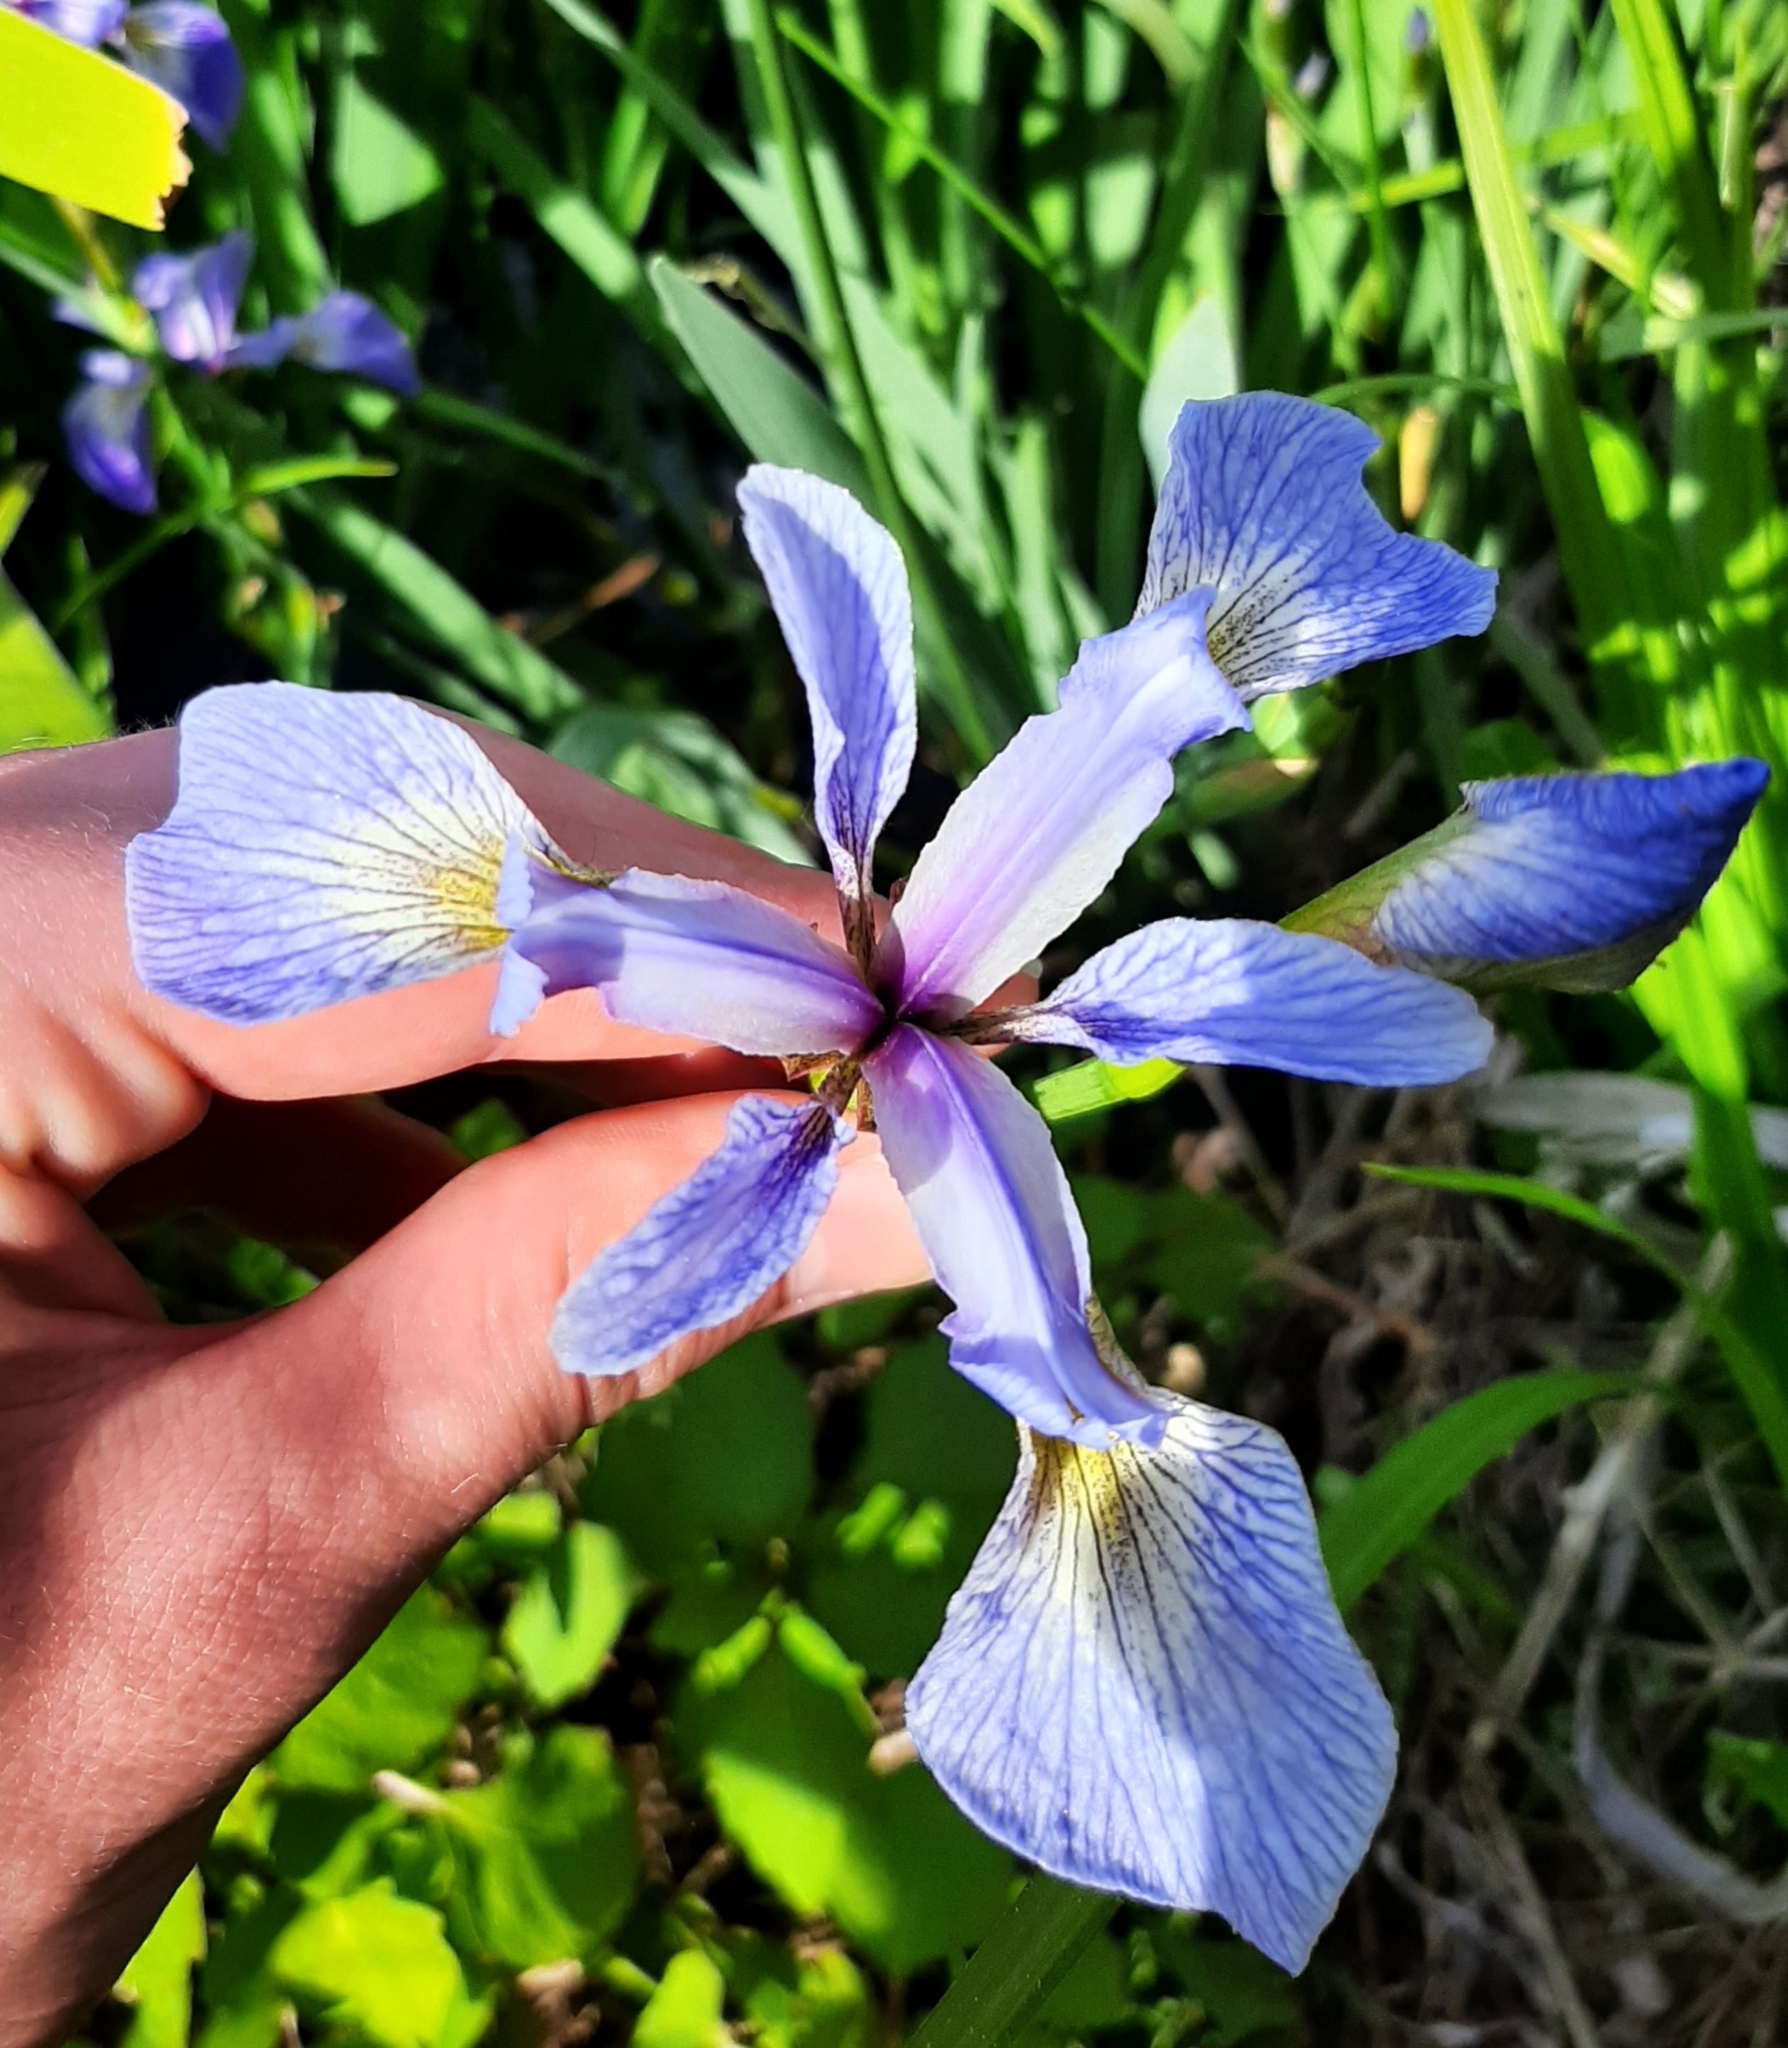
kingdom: Plantae
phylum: Tracheophyta
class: Liliopsida
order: Asparagales
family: Iridaceae
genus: Iris
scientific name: Iris versicolor
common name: Purple iris
